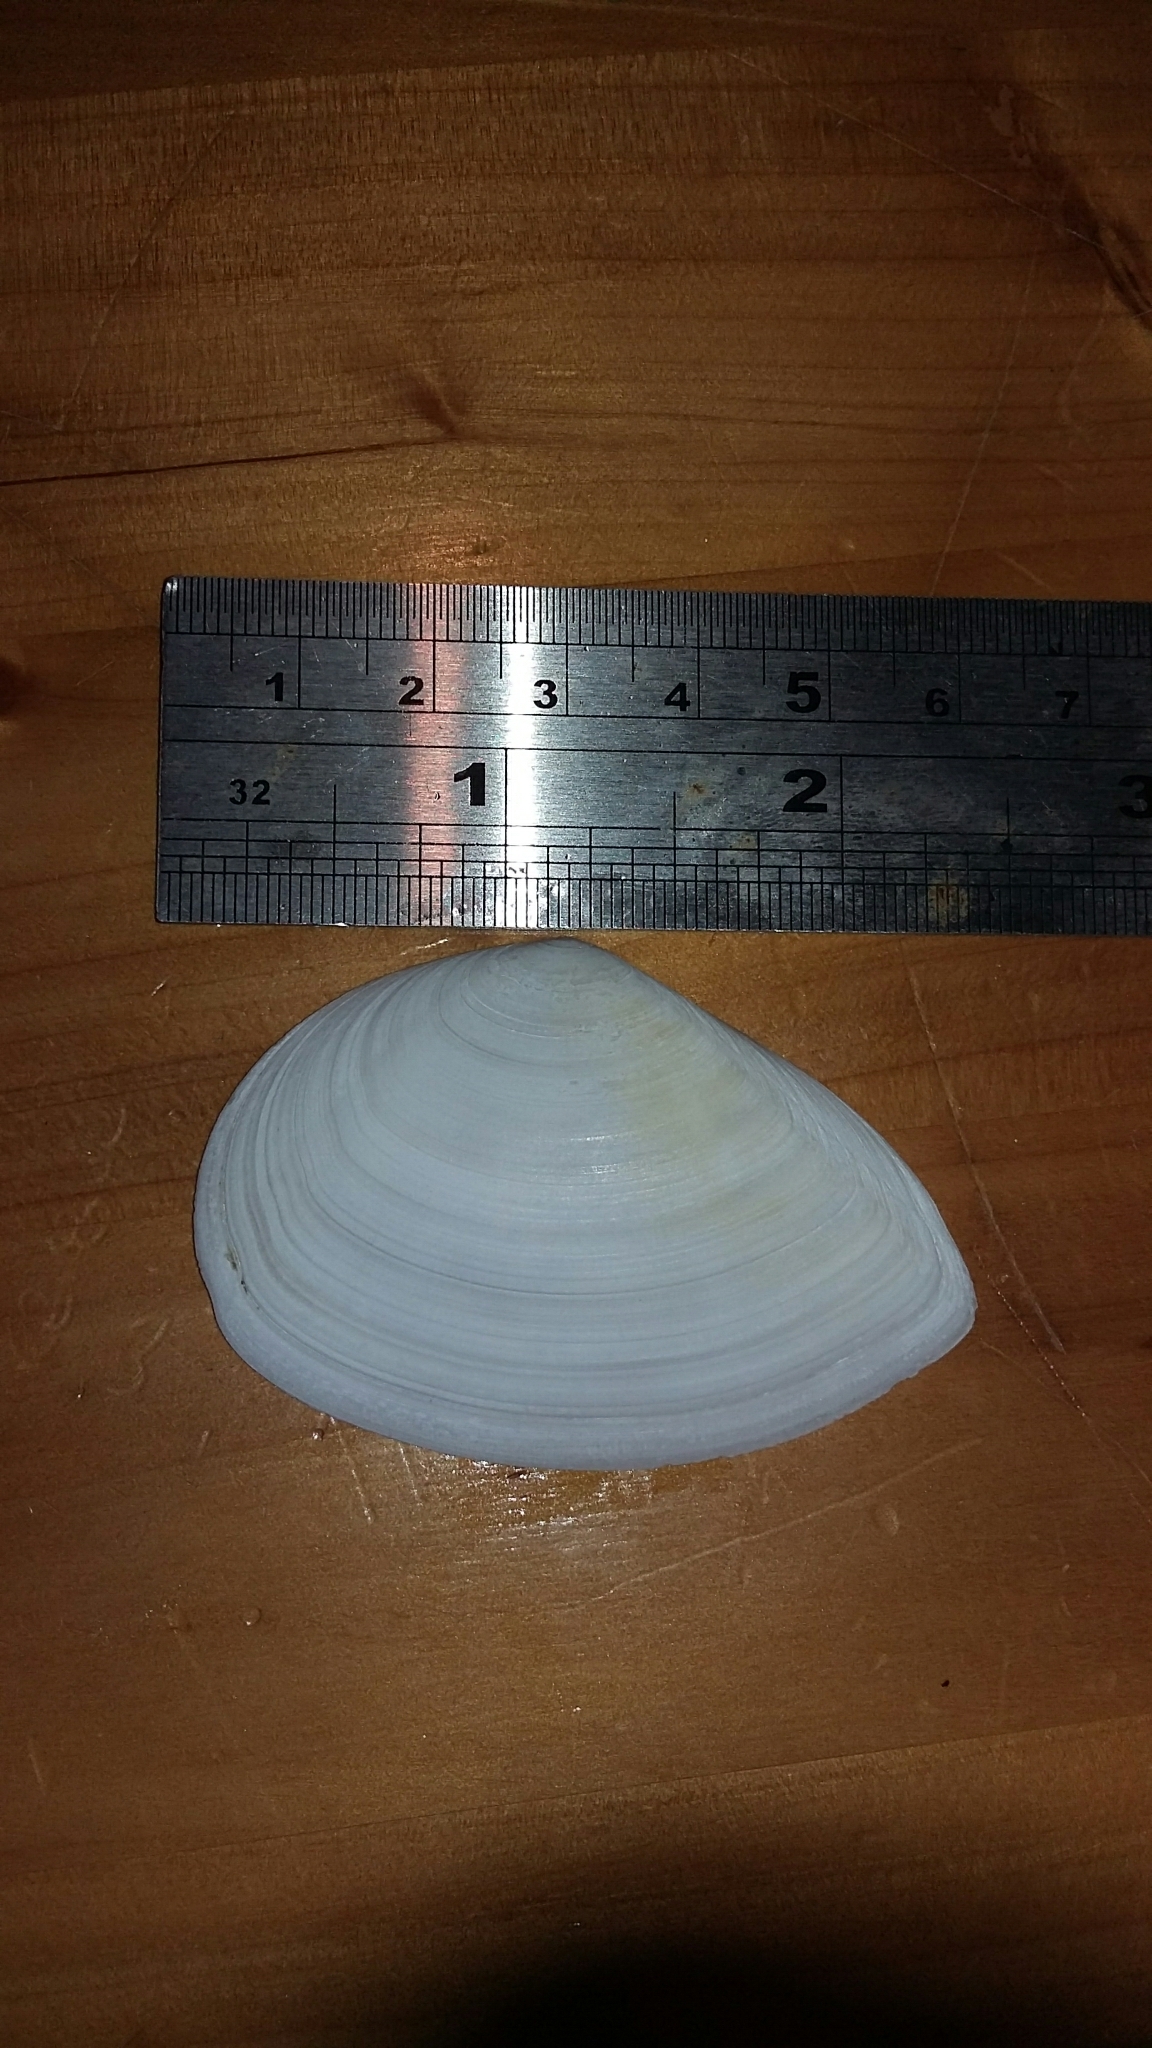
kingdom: Animalia
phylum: Mollusca
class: Bivalvia
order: Cardiida
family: Tellinidae
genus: Bartschicoma
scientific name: Bartschicoma gaimardi
